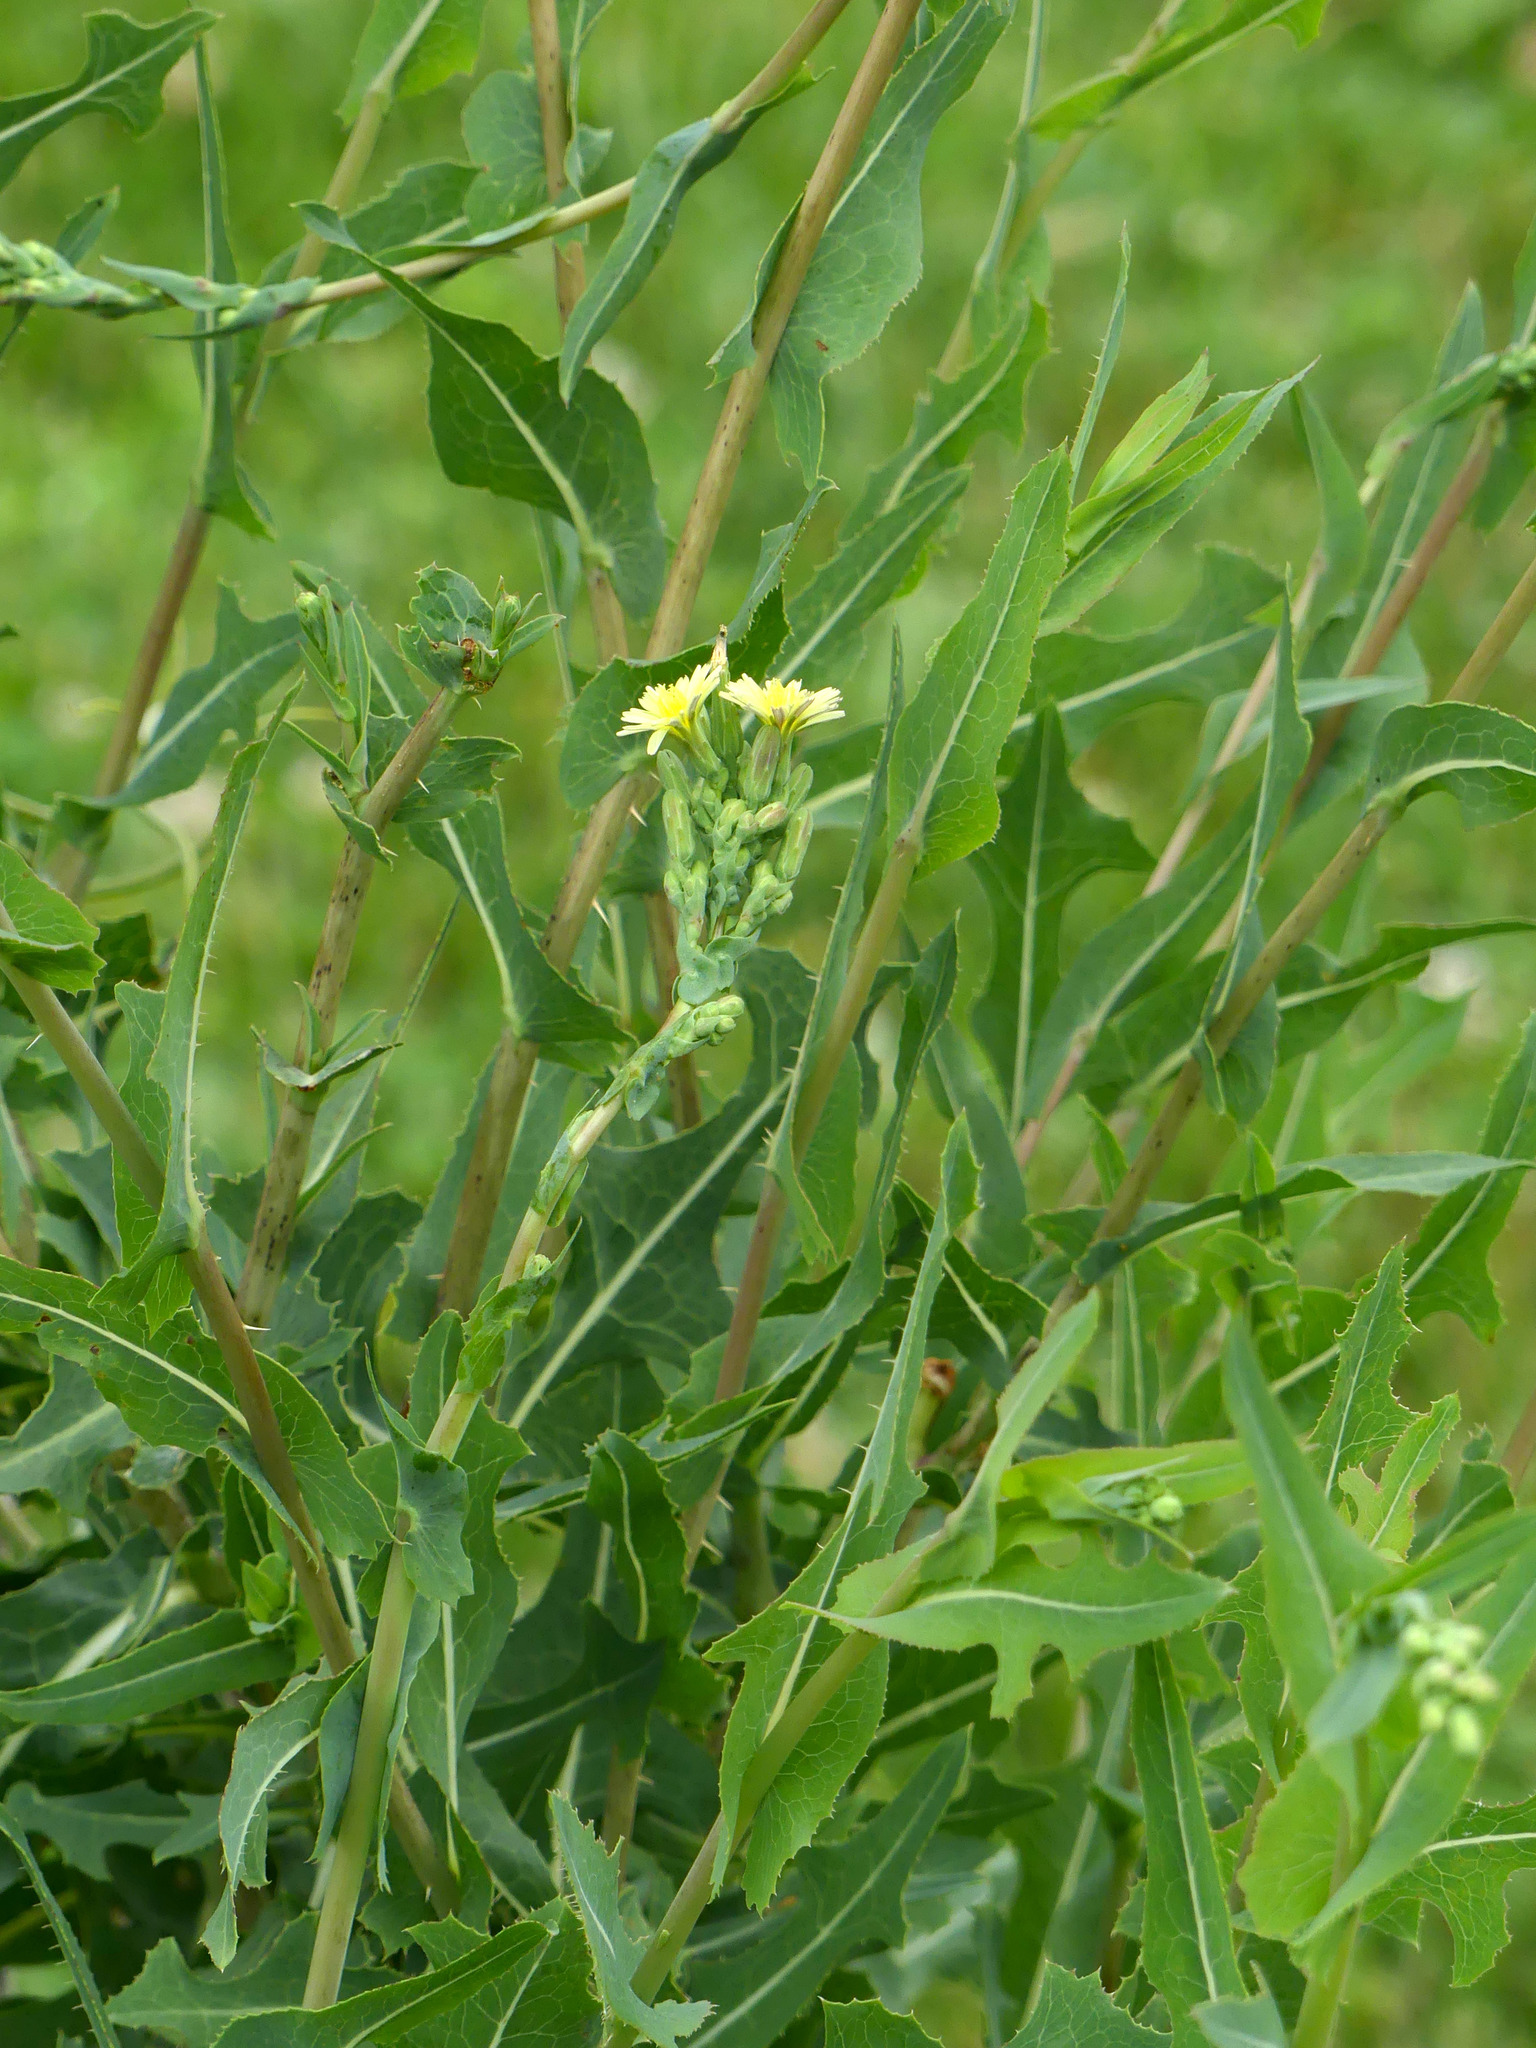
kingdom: Plantae
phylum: Tracheophyta
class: Magnoliopsida
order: Asterales
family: Asteraceae
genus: Lactuca
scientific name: Lactuca serriola
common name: Prickly lettuce
